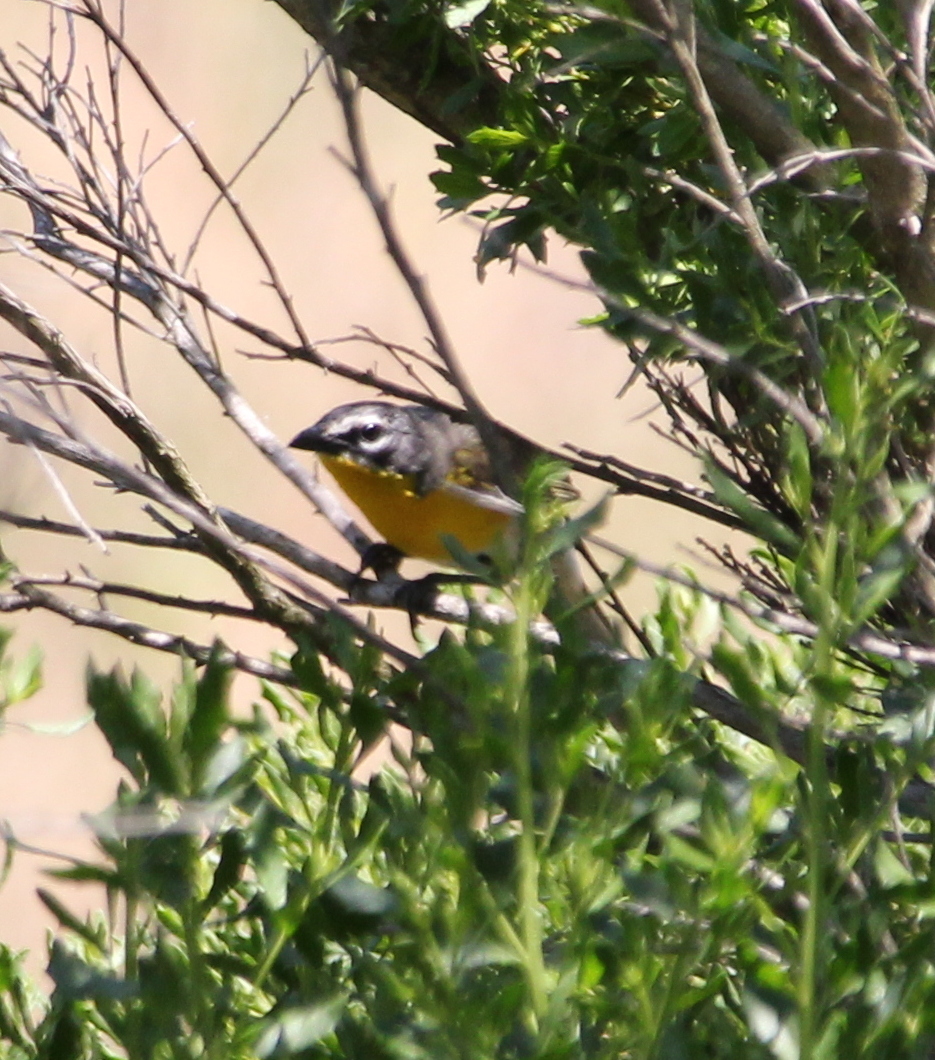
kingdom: Animalia
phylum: Chordata
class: Aves
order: Passeriformes
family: Parulidae
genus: Icteria
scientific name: Icteria virens
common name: Yellow-breasted chat
